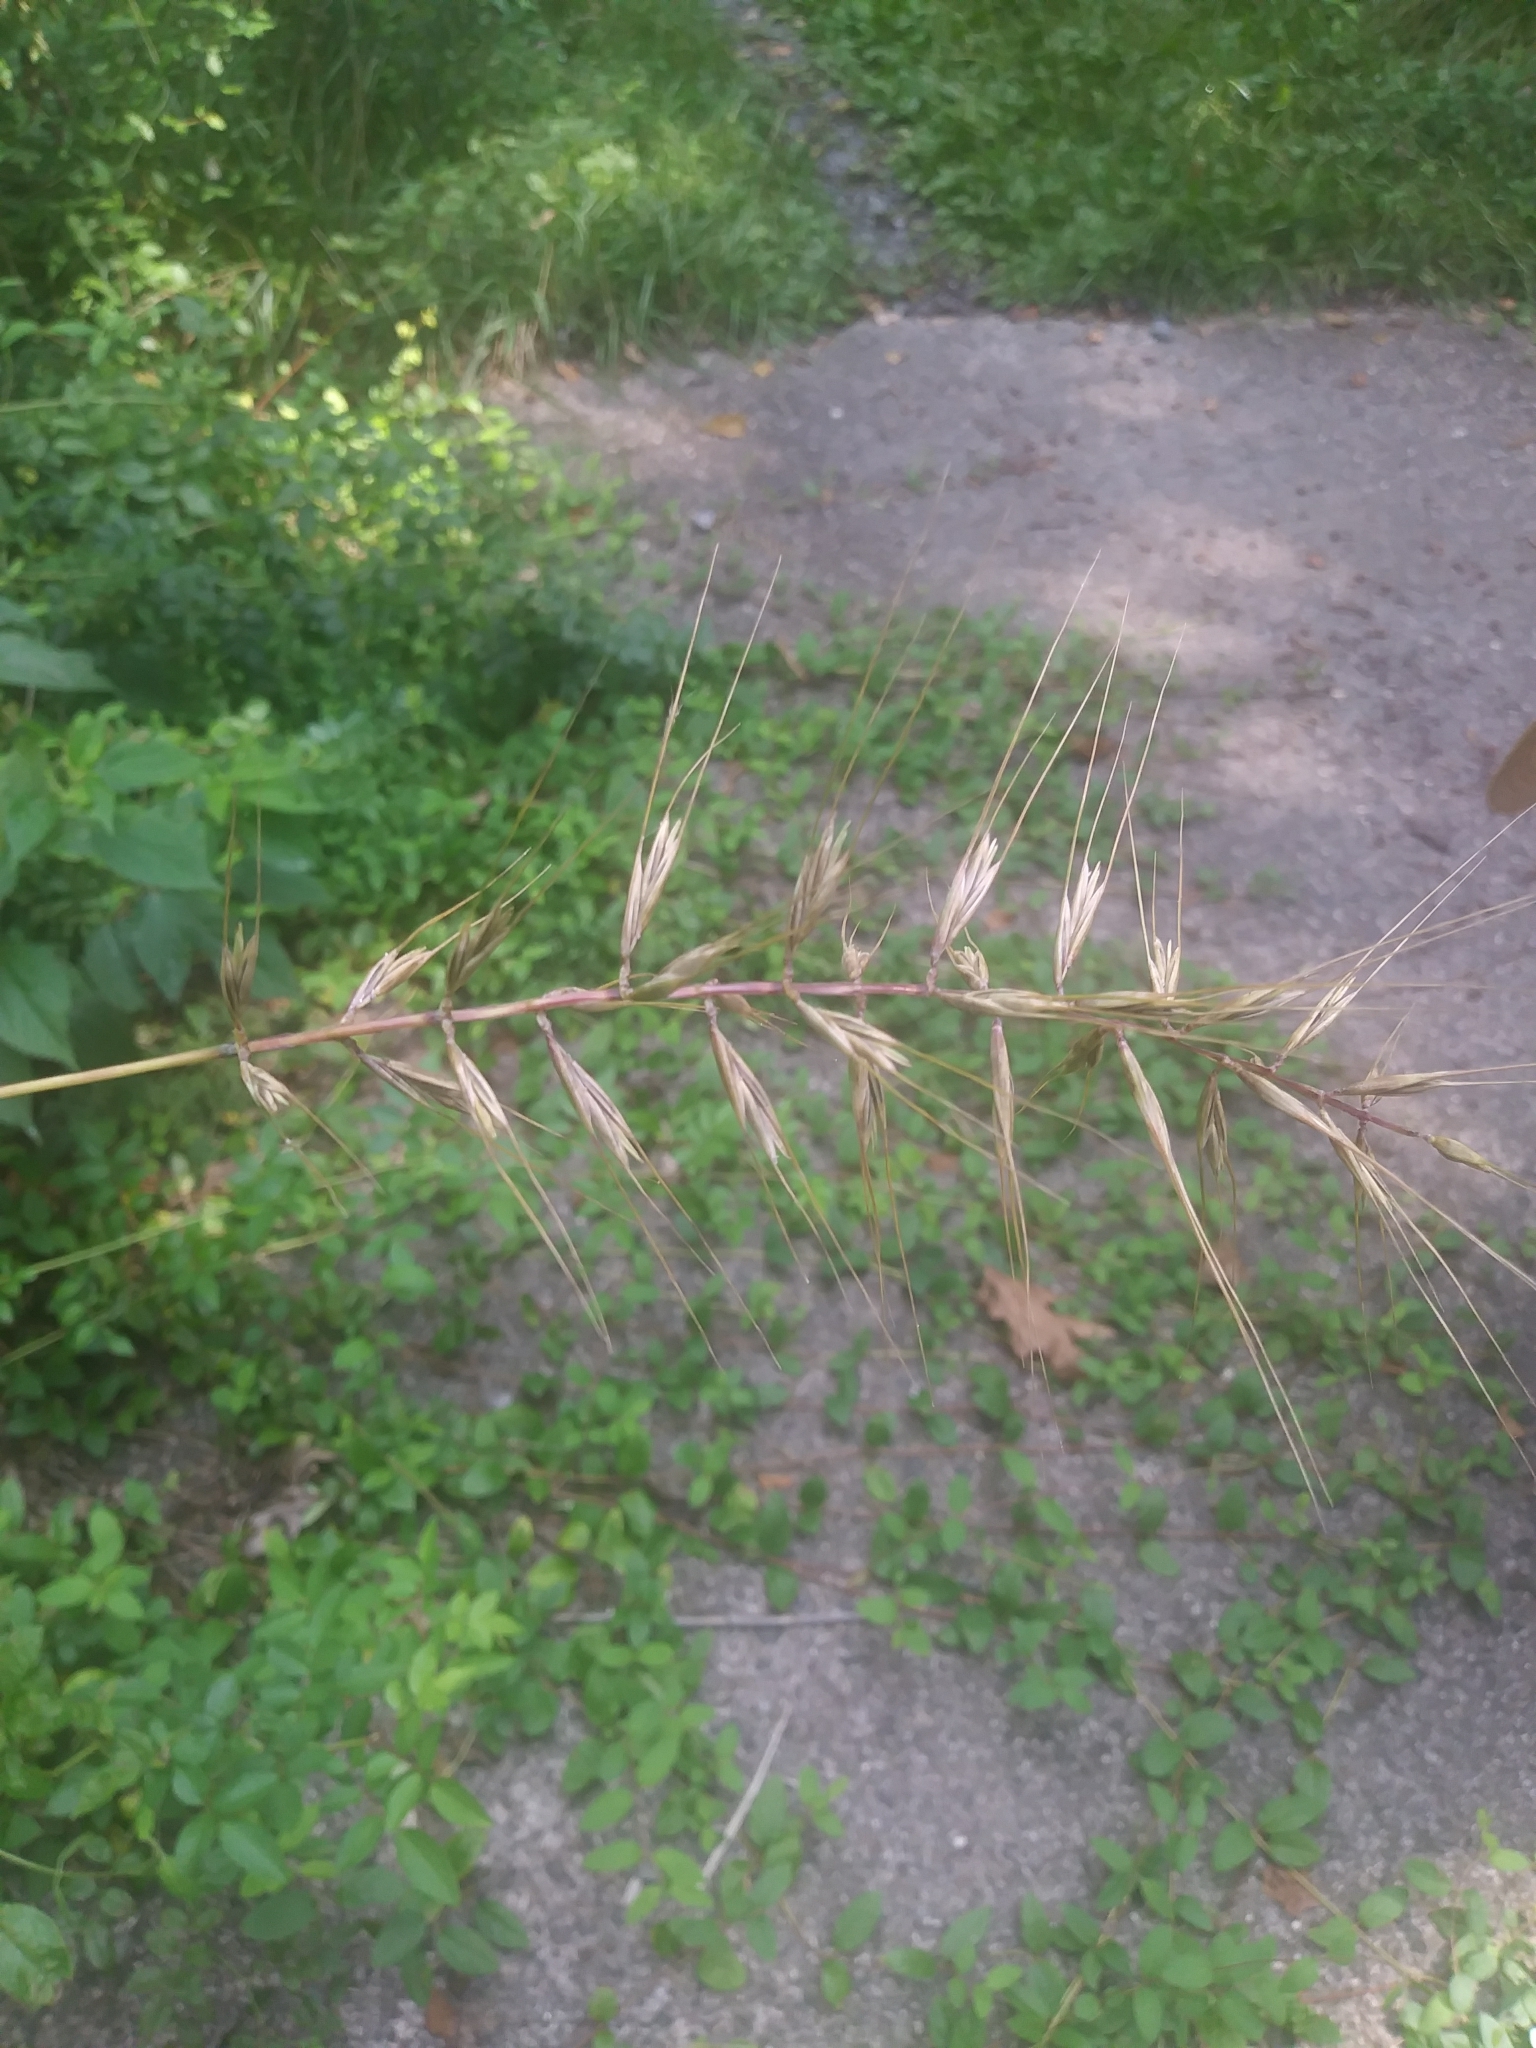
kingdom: Plantae
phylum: Tracheophyta
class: Liliopsida
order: Poales
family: Poaceae
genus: Elymus
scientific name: Elymus hystrix
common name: Bottlebrush grass
